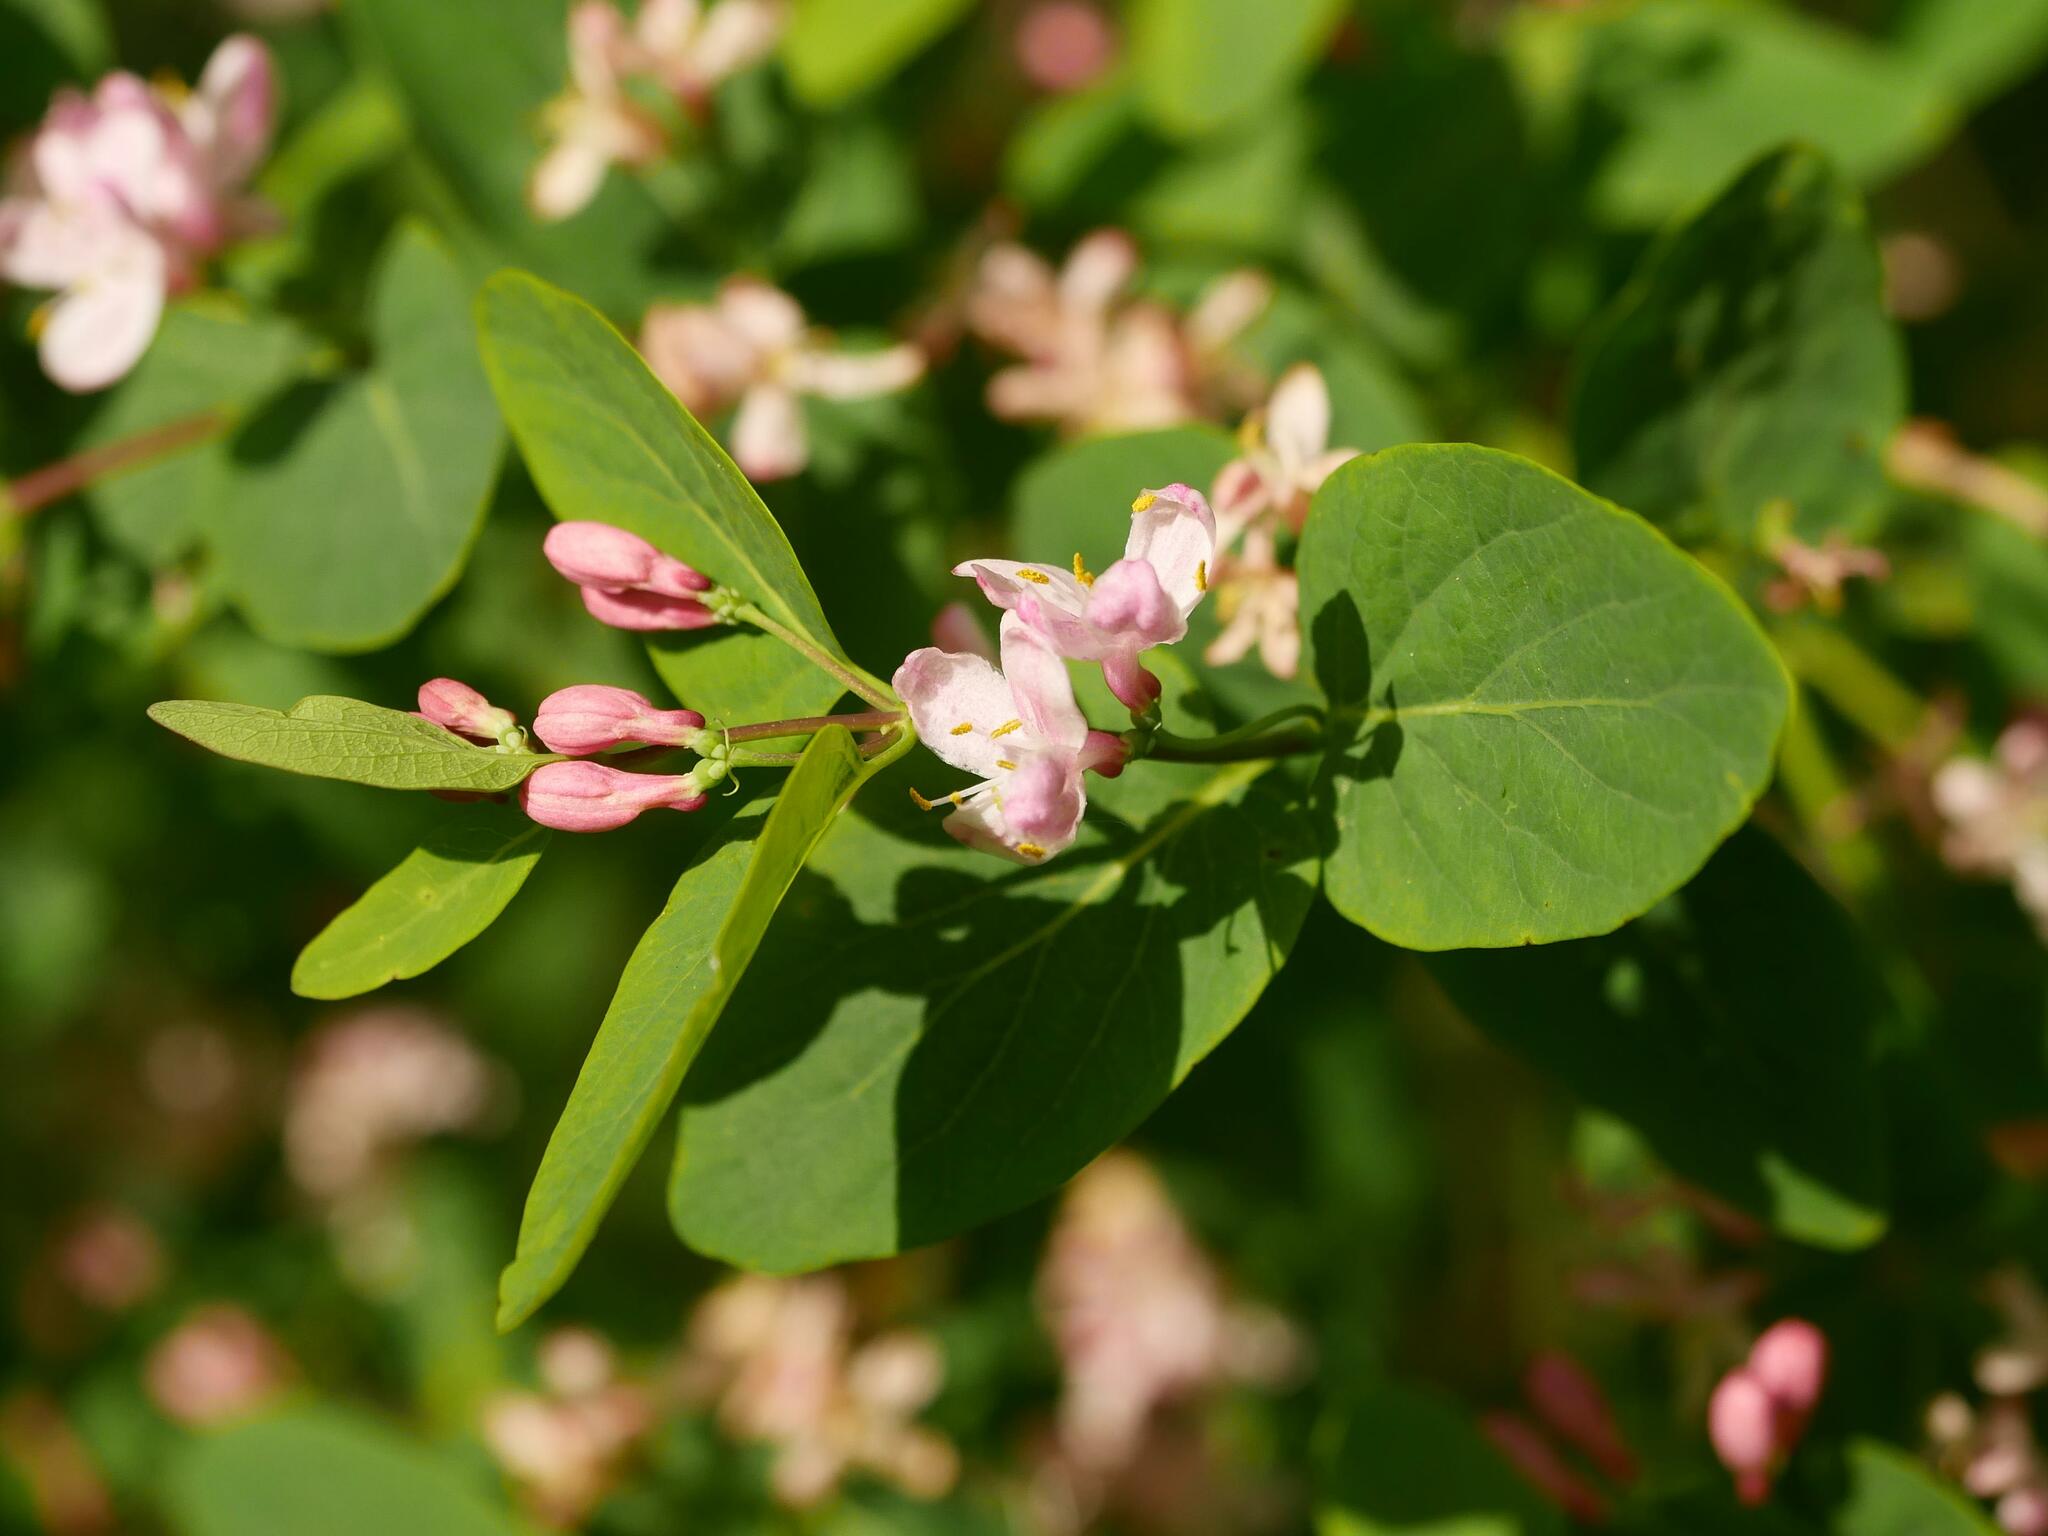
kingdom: Plantae
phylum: Tracheophyta
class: Magnoliopsida
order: Dipsacales
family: Caprifoliaceae
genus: Lonicera
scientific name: Lonicera tatarica
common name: Tatarian honeysuckle
